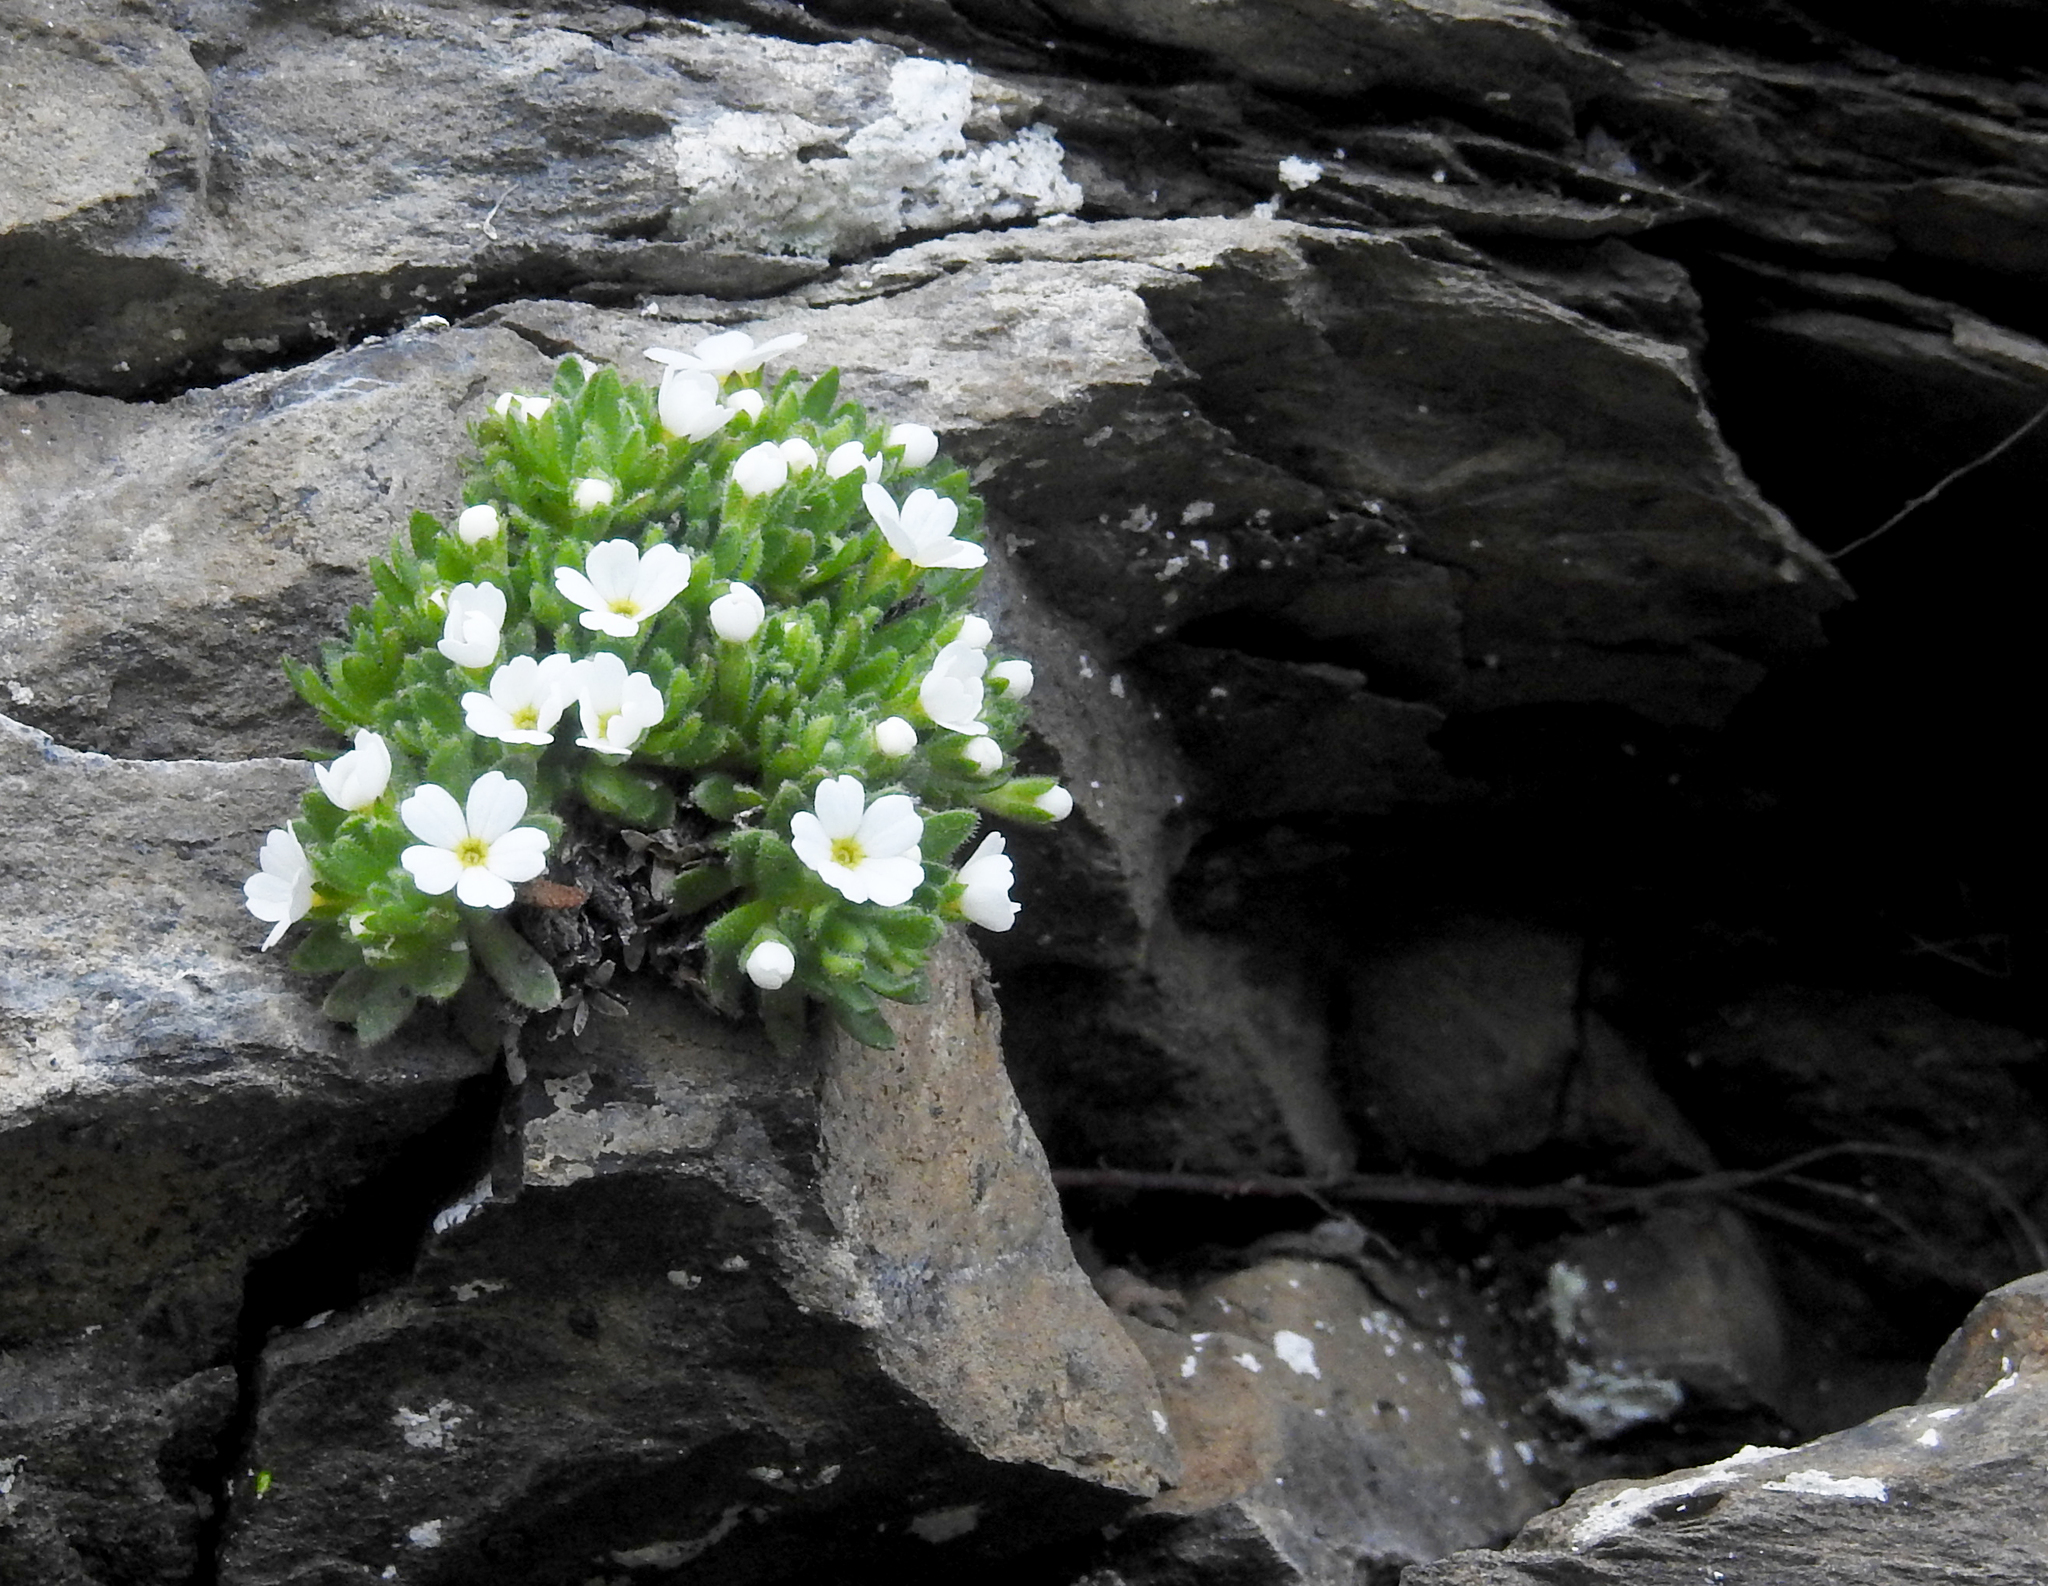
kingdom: Plantae
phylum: Tracheophyta
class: Magnoliopsida
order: Ericales
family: Primulaceae
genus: Androsace
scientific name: Androsace pubescens
